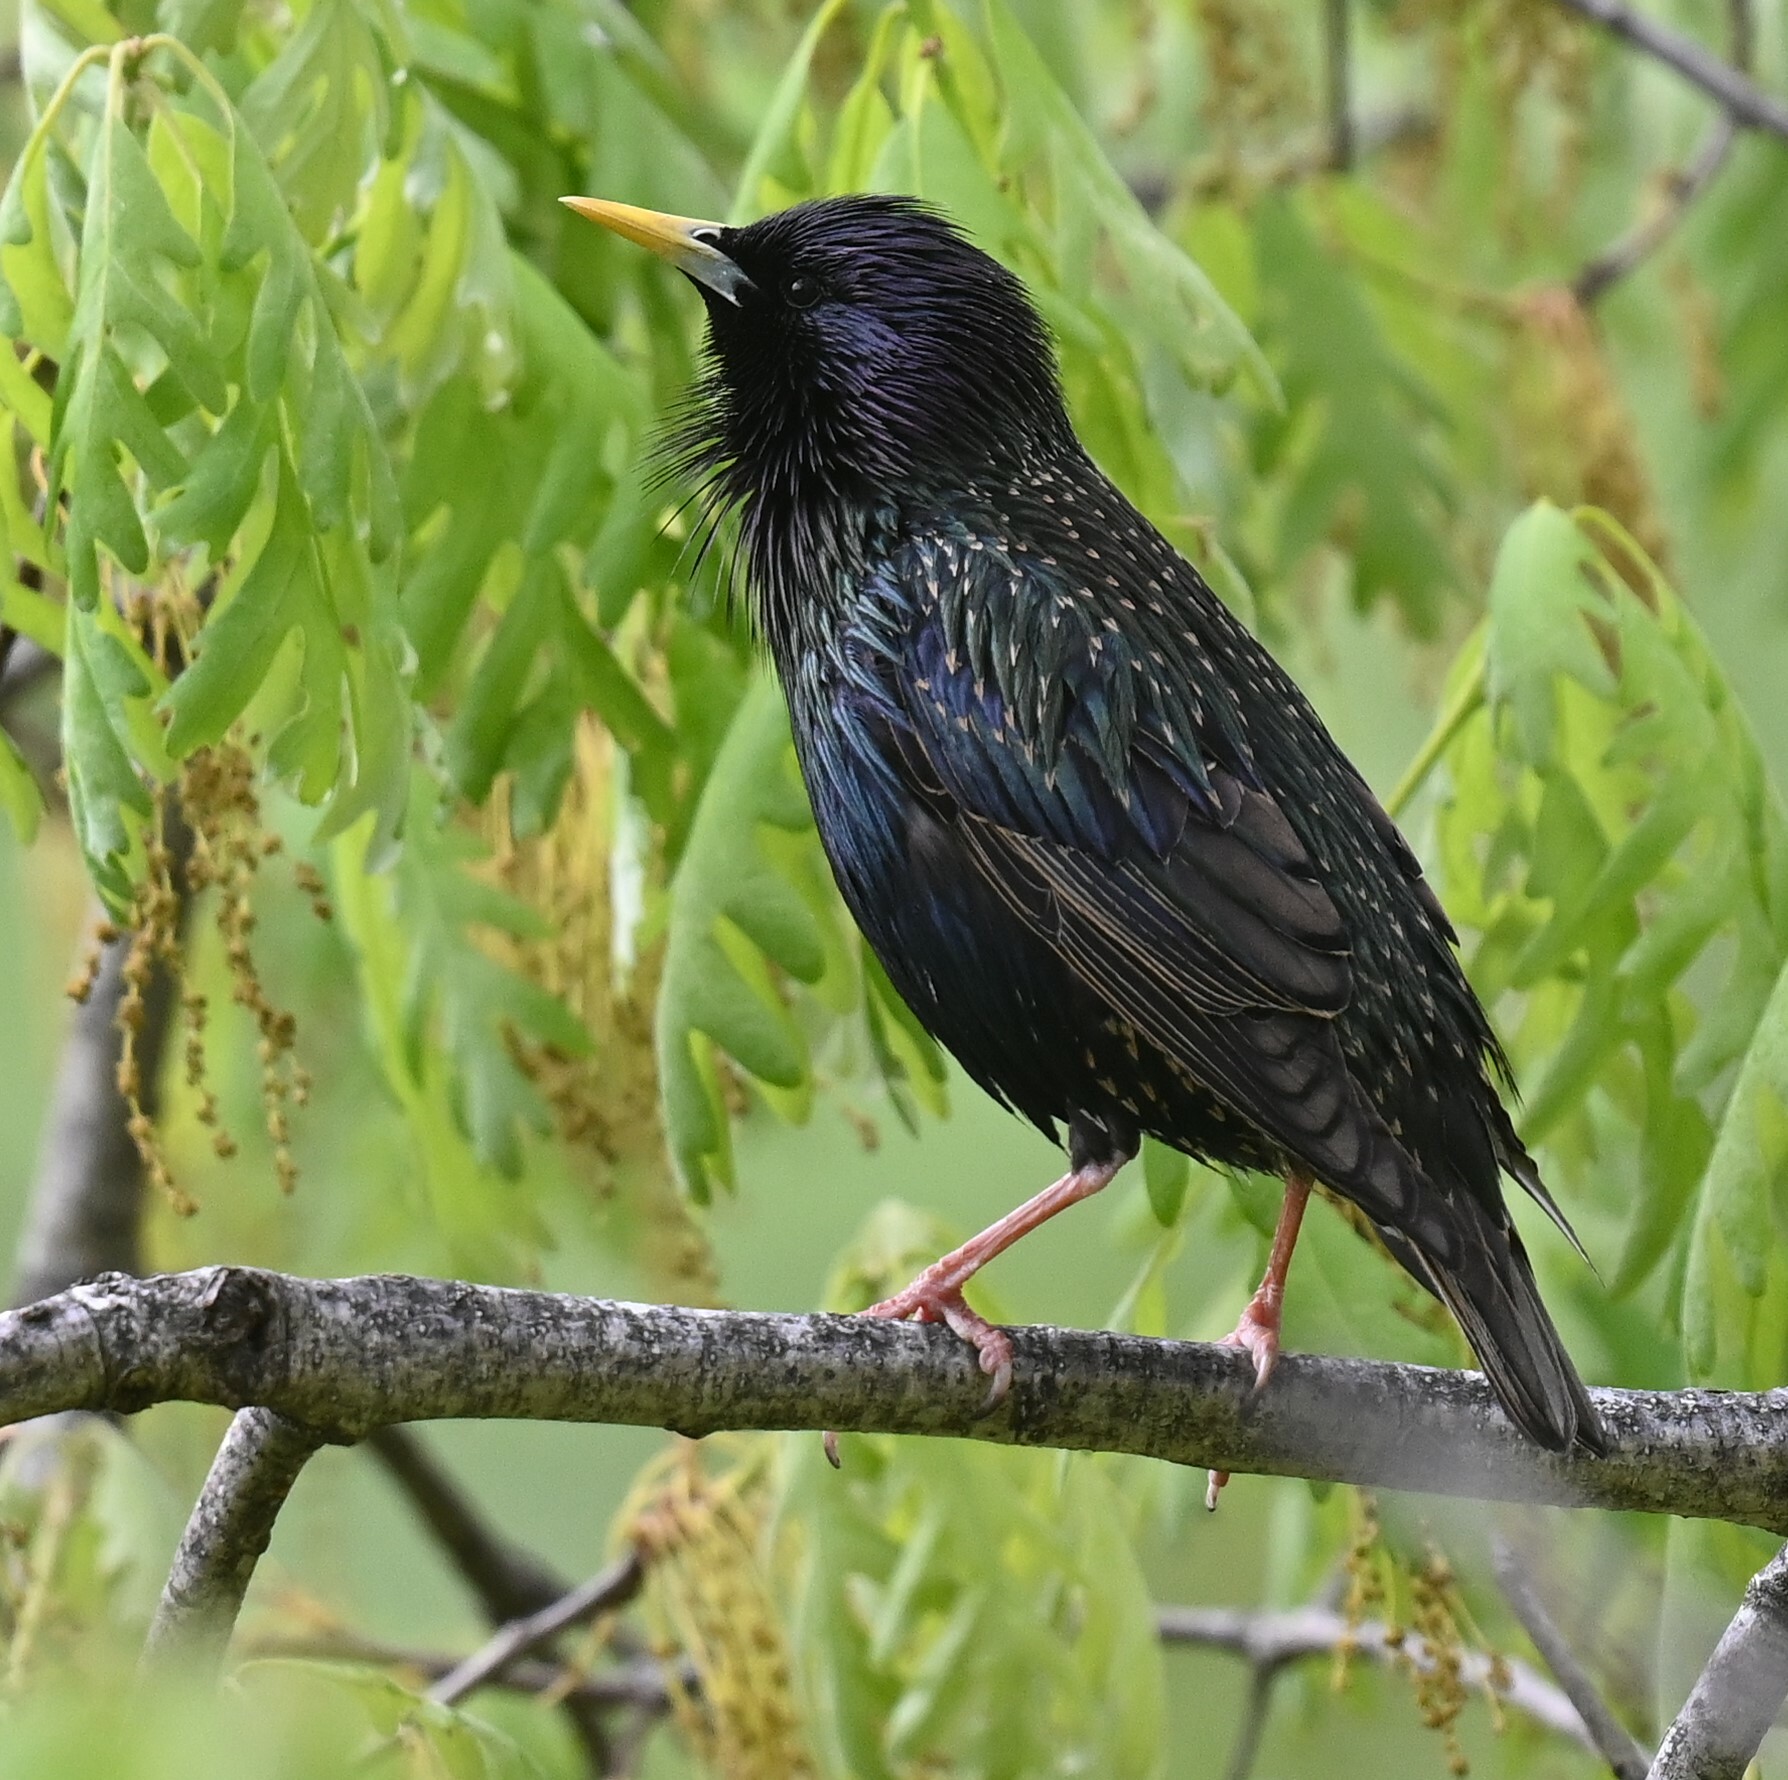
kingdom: Animalia
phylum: Chordata
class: Aves
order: Passeriformes
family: Sturnidae
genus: Sturnus
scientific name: Sturnus vulgaris
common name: Common starling
